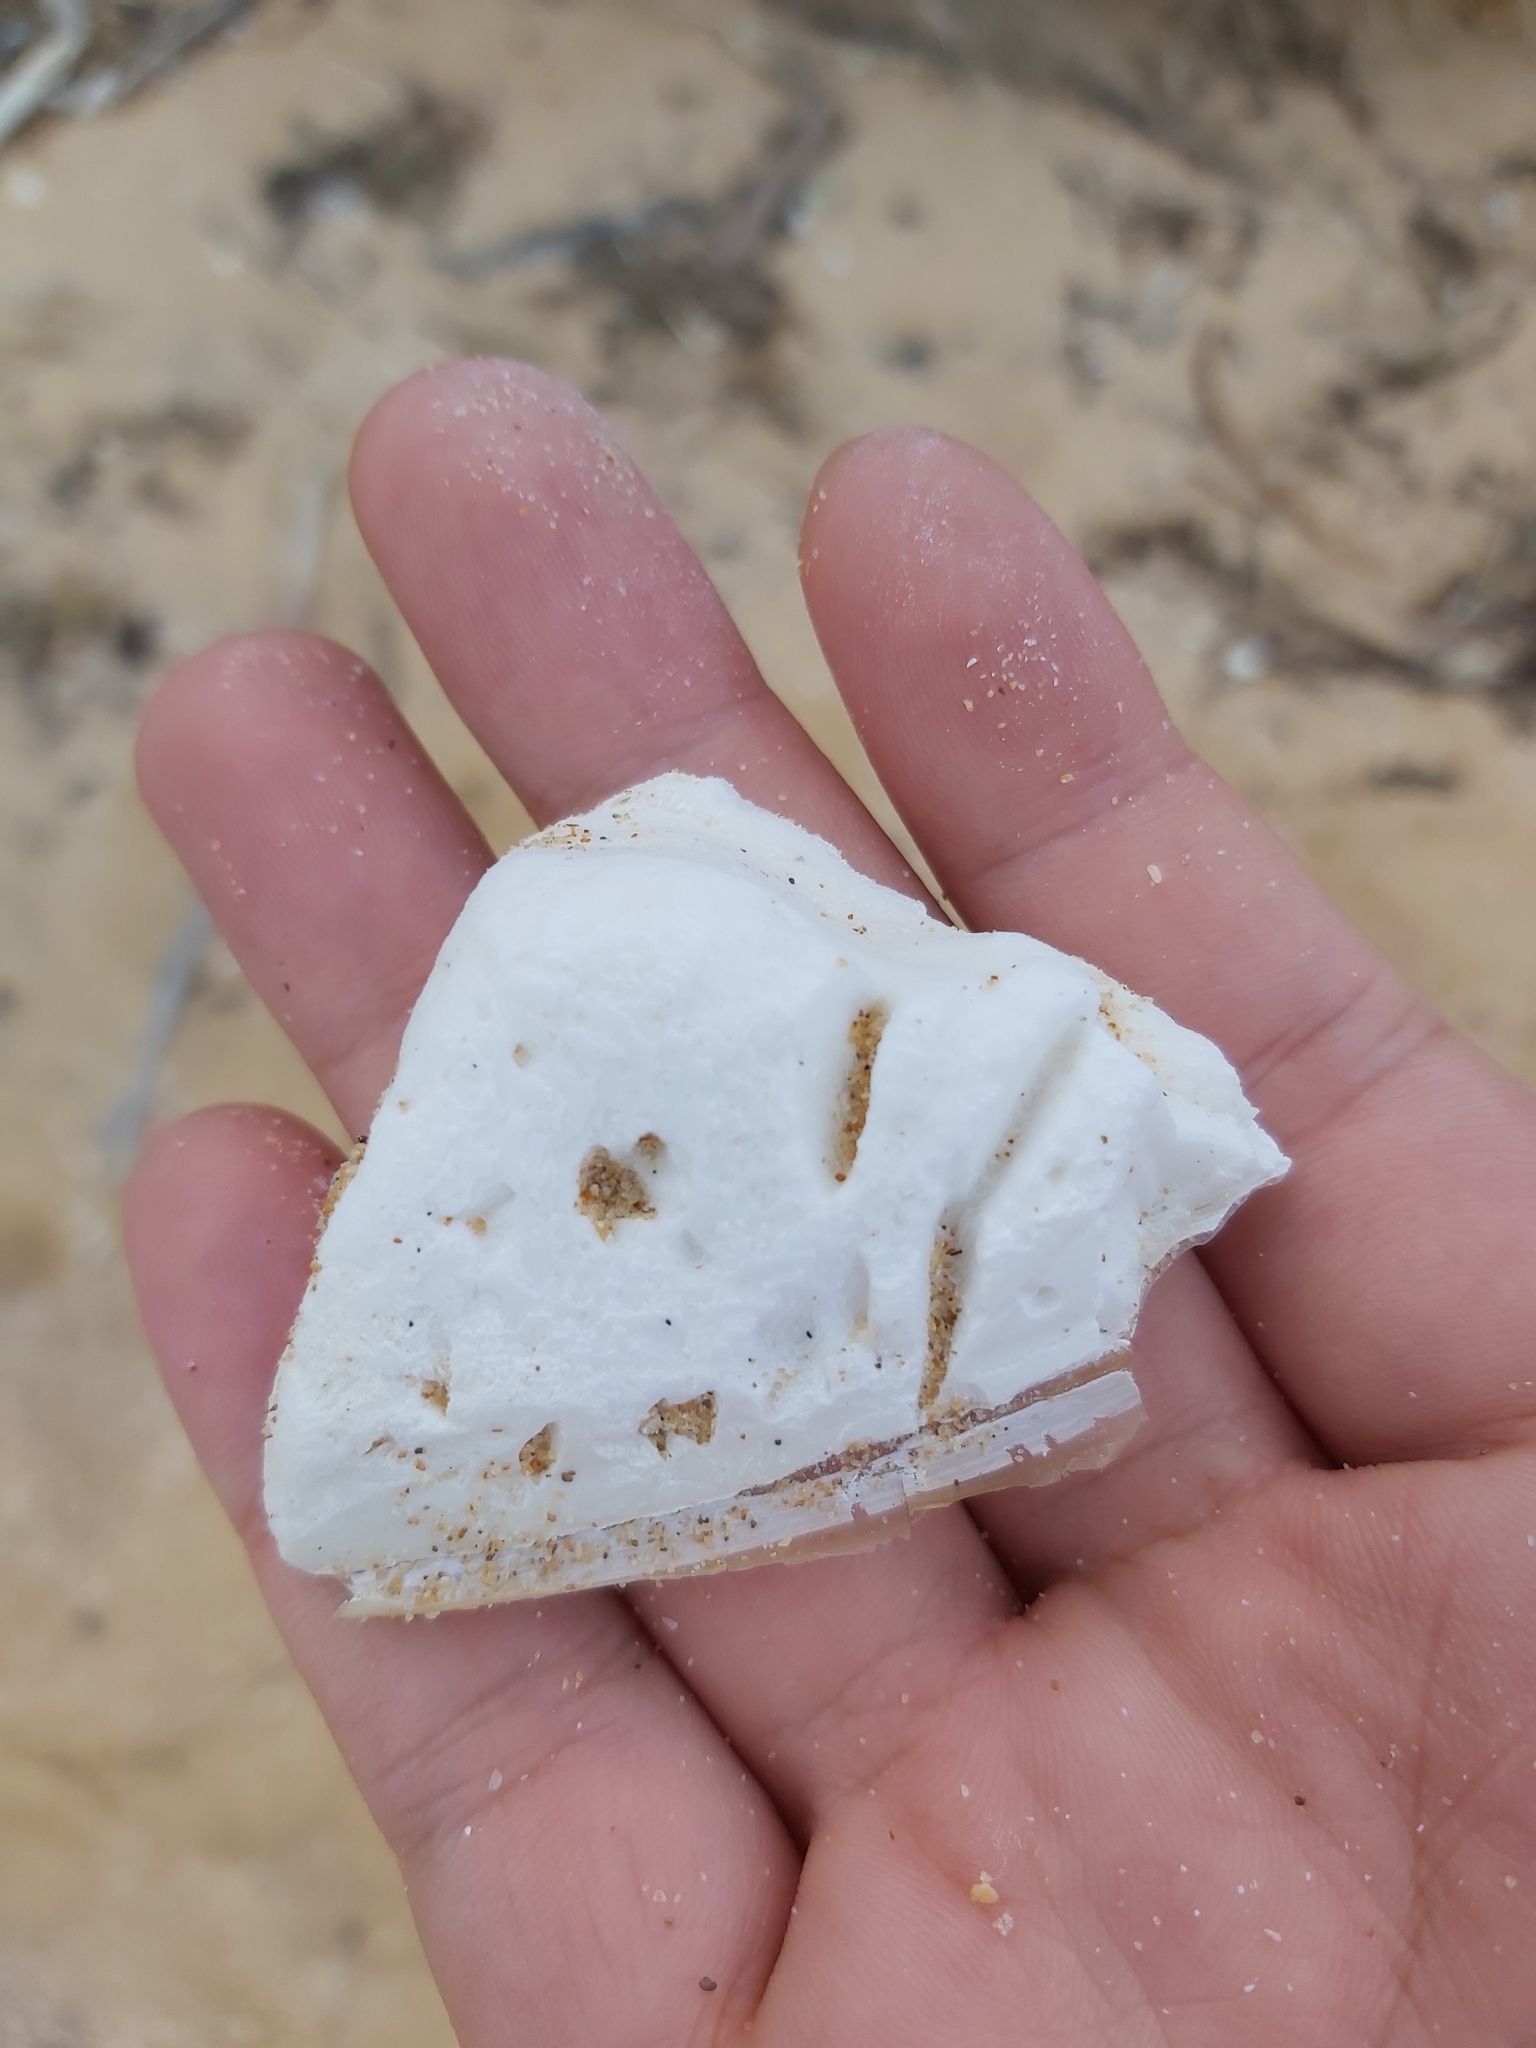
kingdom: Animalia
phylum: Mollusca
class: Cephalopoda
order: Sepiida
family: Sepiidae
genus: Ascarosepion
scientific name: Ascarosepion apama
